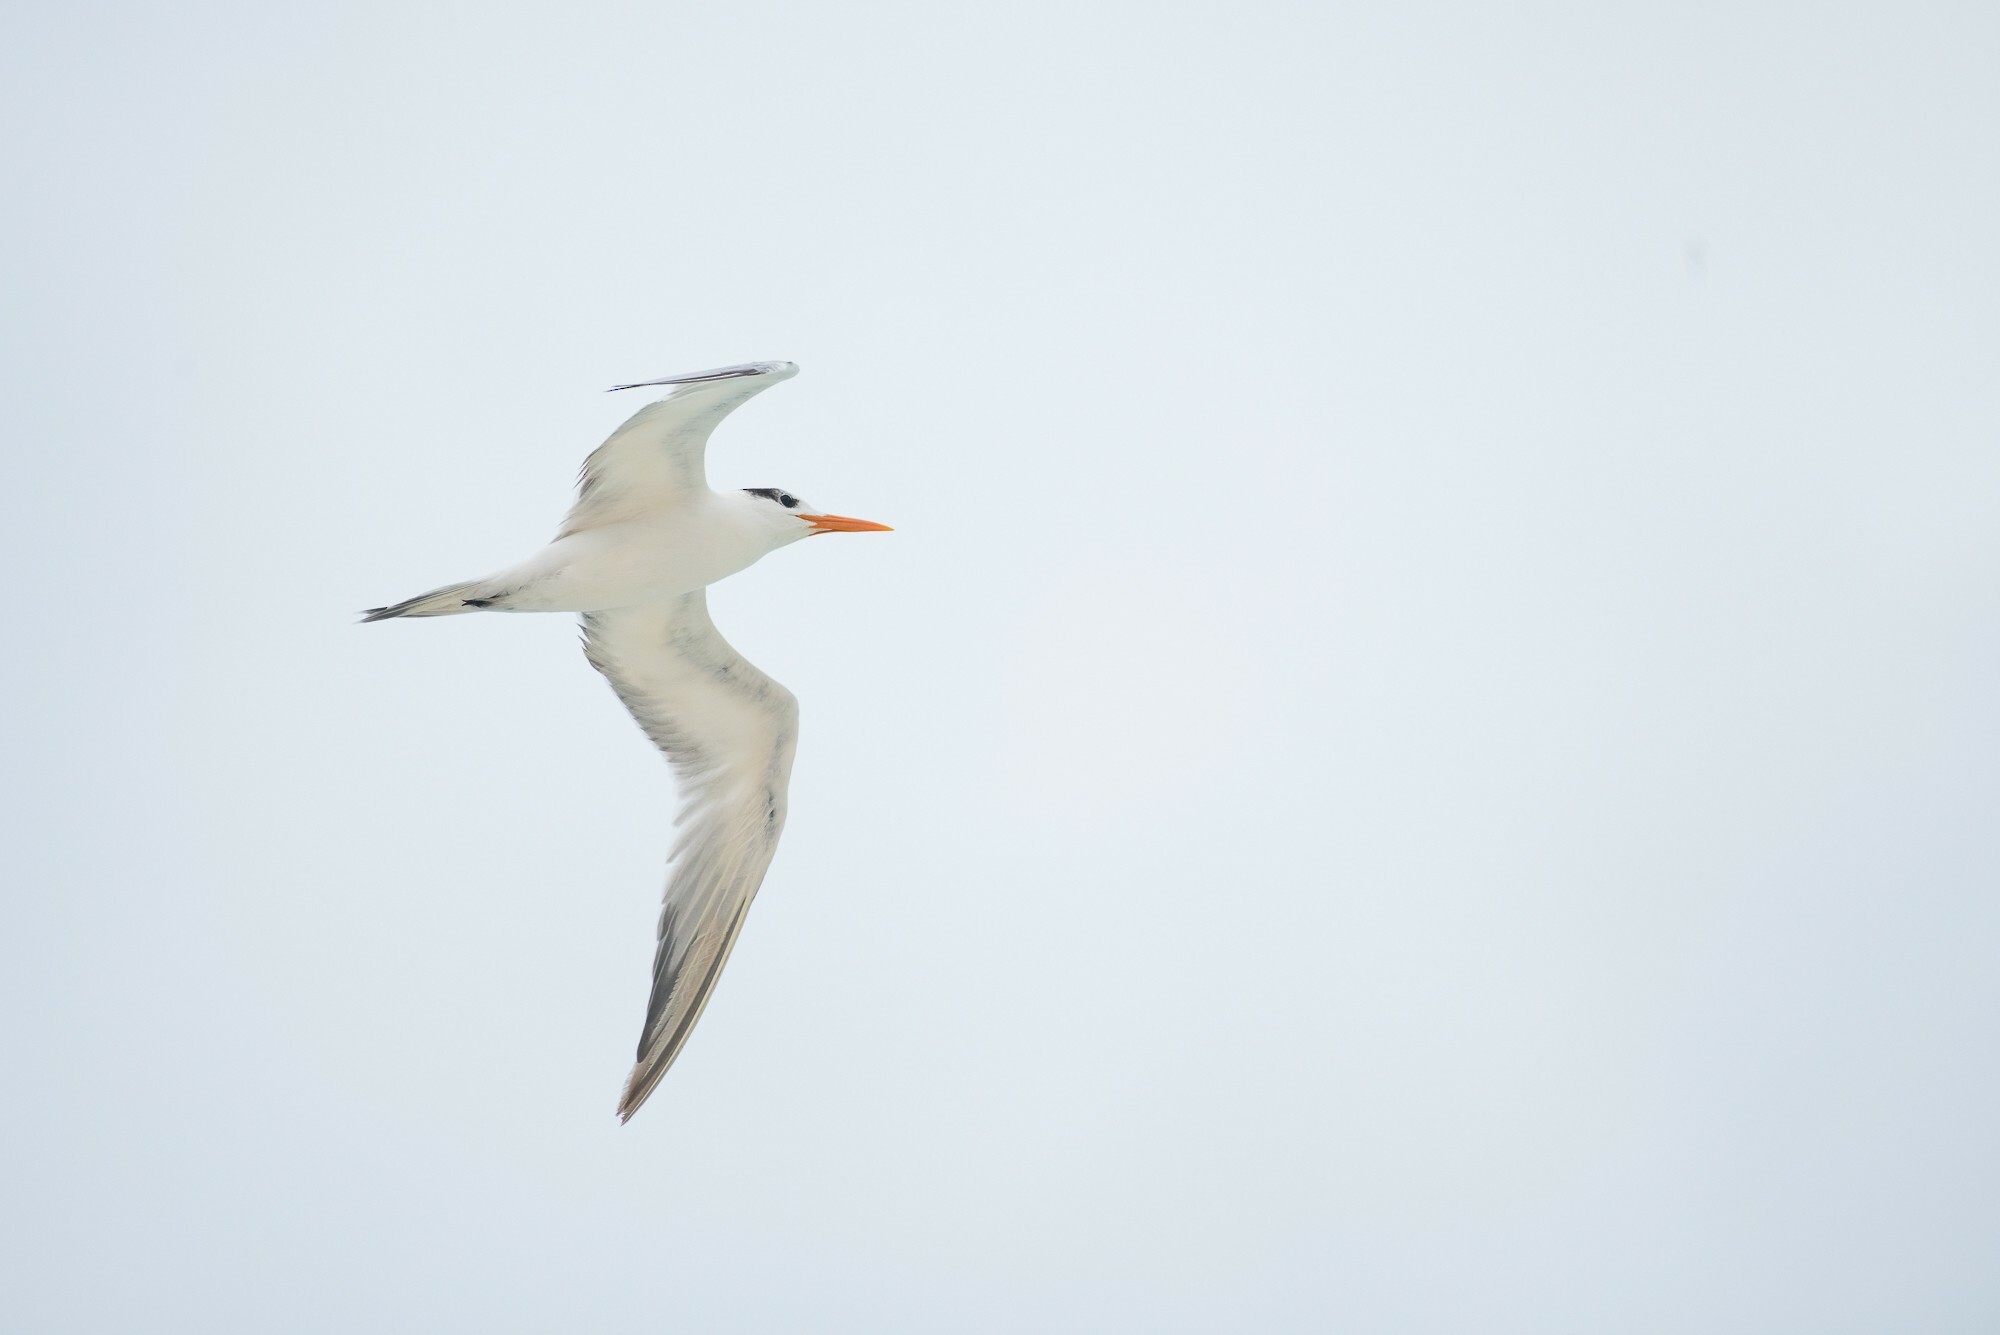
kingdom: Animalia
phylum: Chordata
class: Aves
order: Charadriiformes
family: Laridae
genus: Thalasseus
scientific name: Thalasseus maximus
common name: Royal tern
